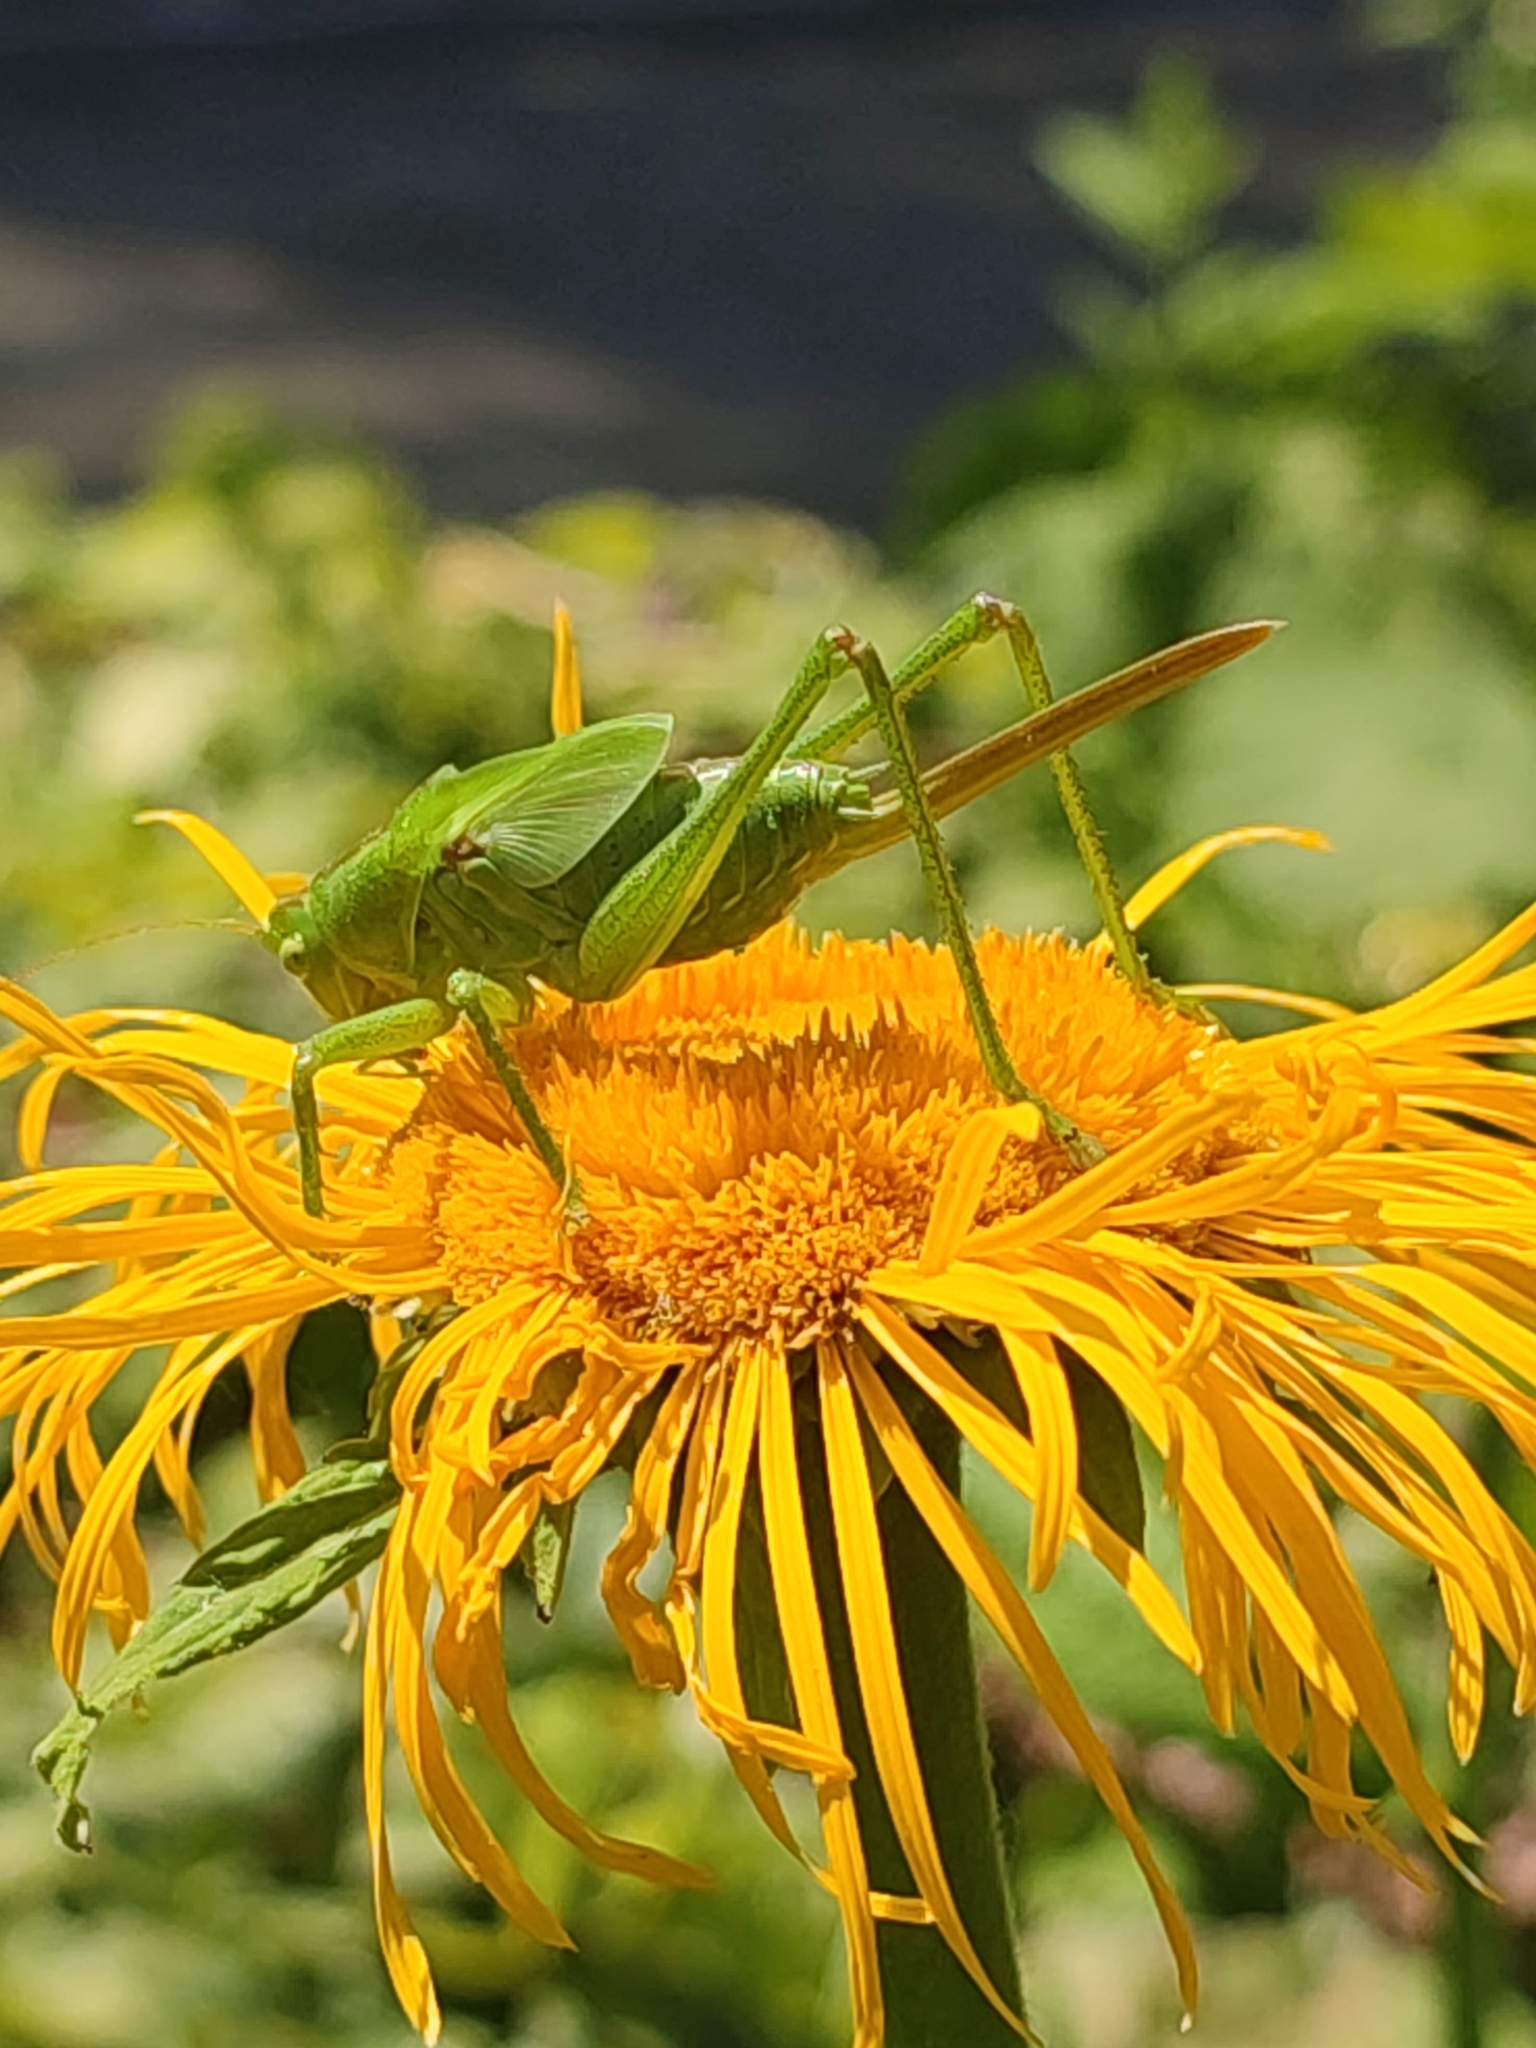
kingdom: Animalia
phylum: Arthropoda
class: Insecta
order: Orthoptera
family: Tettigoniidae
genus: Tettigonia
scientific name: Tettigonia viridissima
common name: Great green bush-cricket
